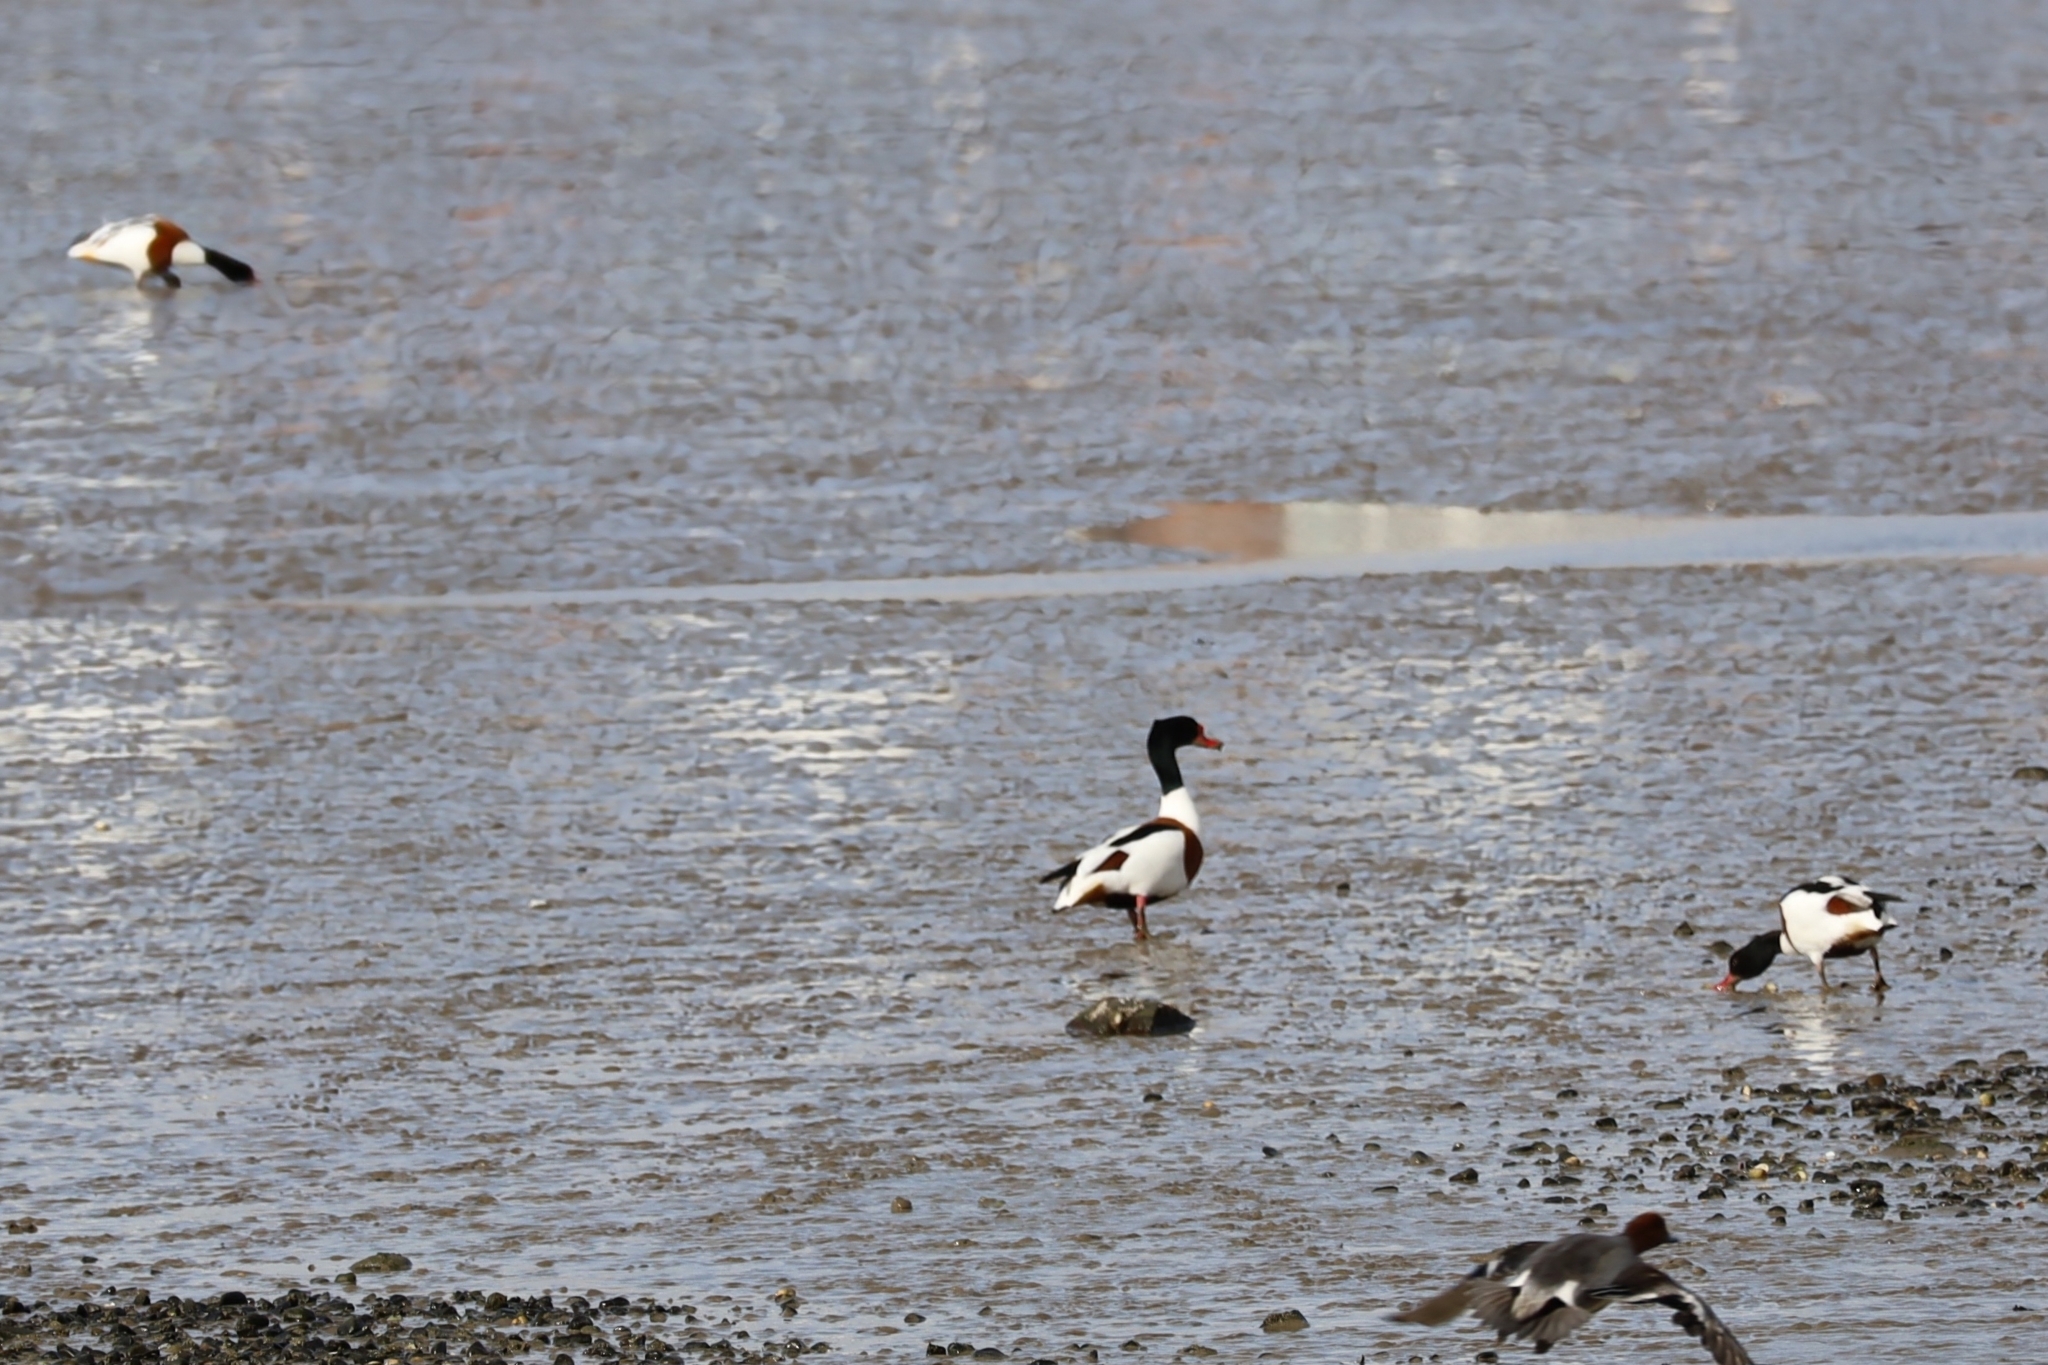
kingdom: Animalia
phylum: Chordata
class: Aves
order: Anseriformes
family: Anatidae
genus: Tadorna
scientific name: Tadorna tadorna
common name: Common shelduck
